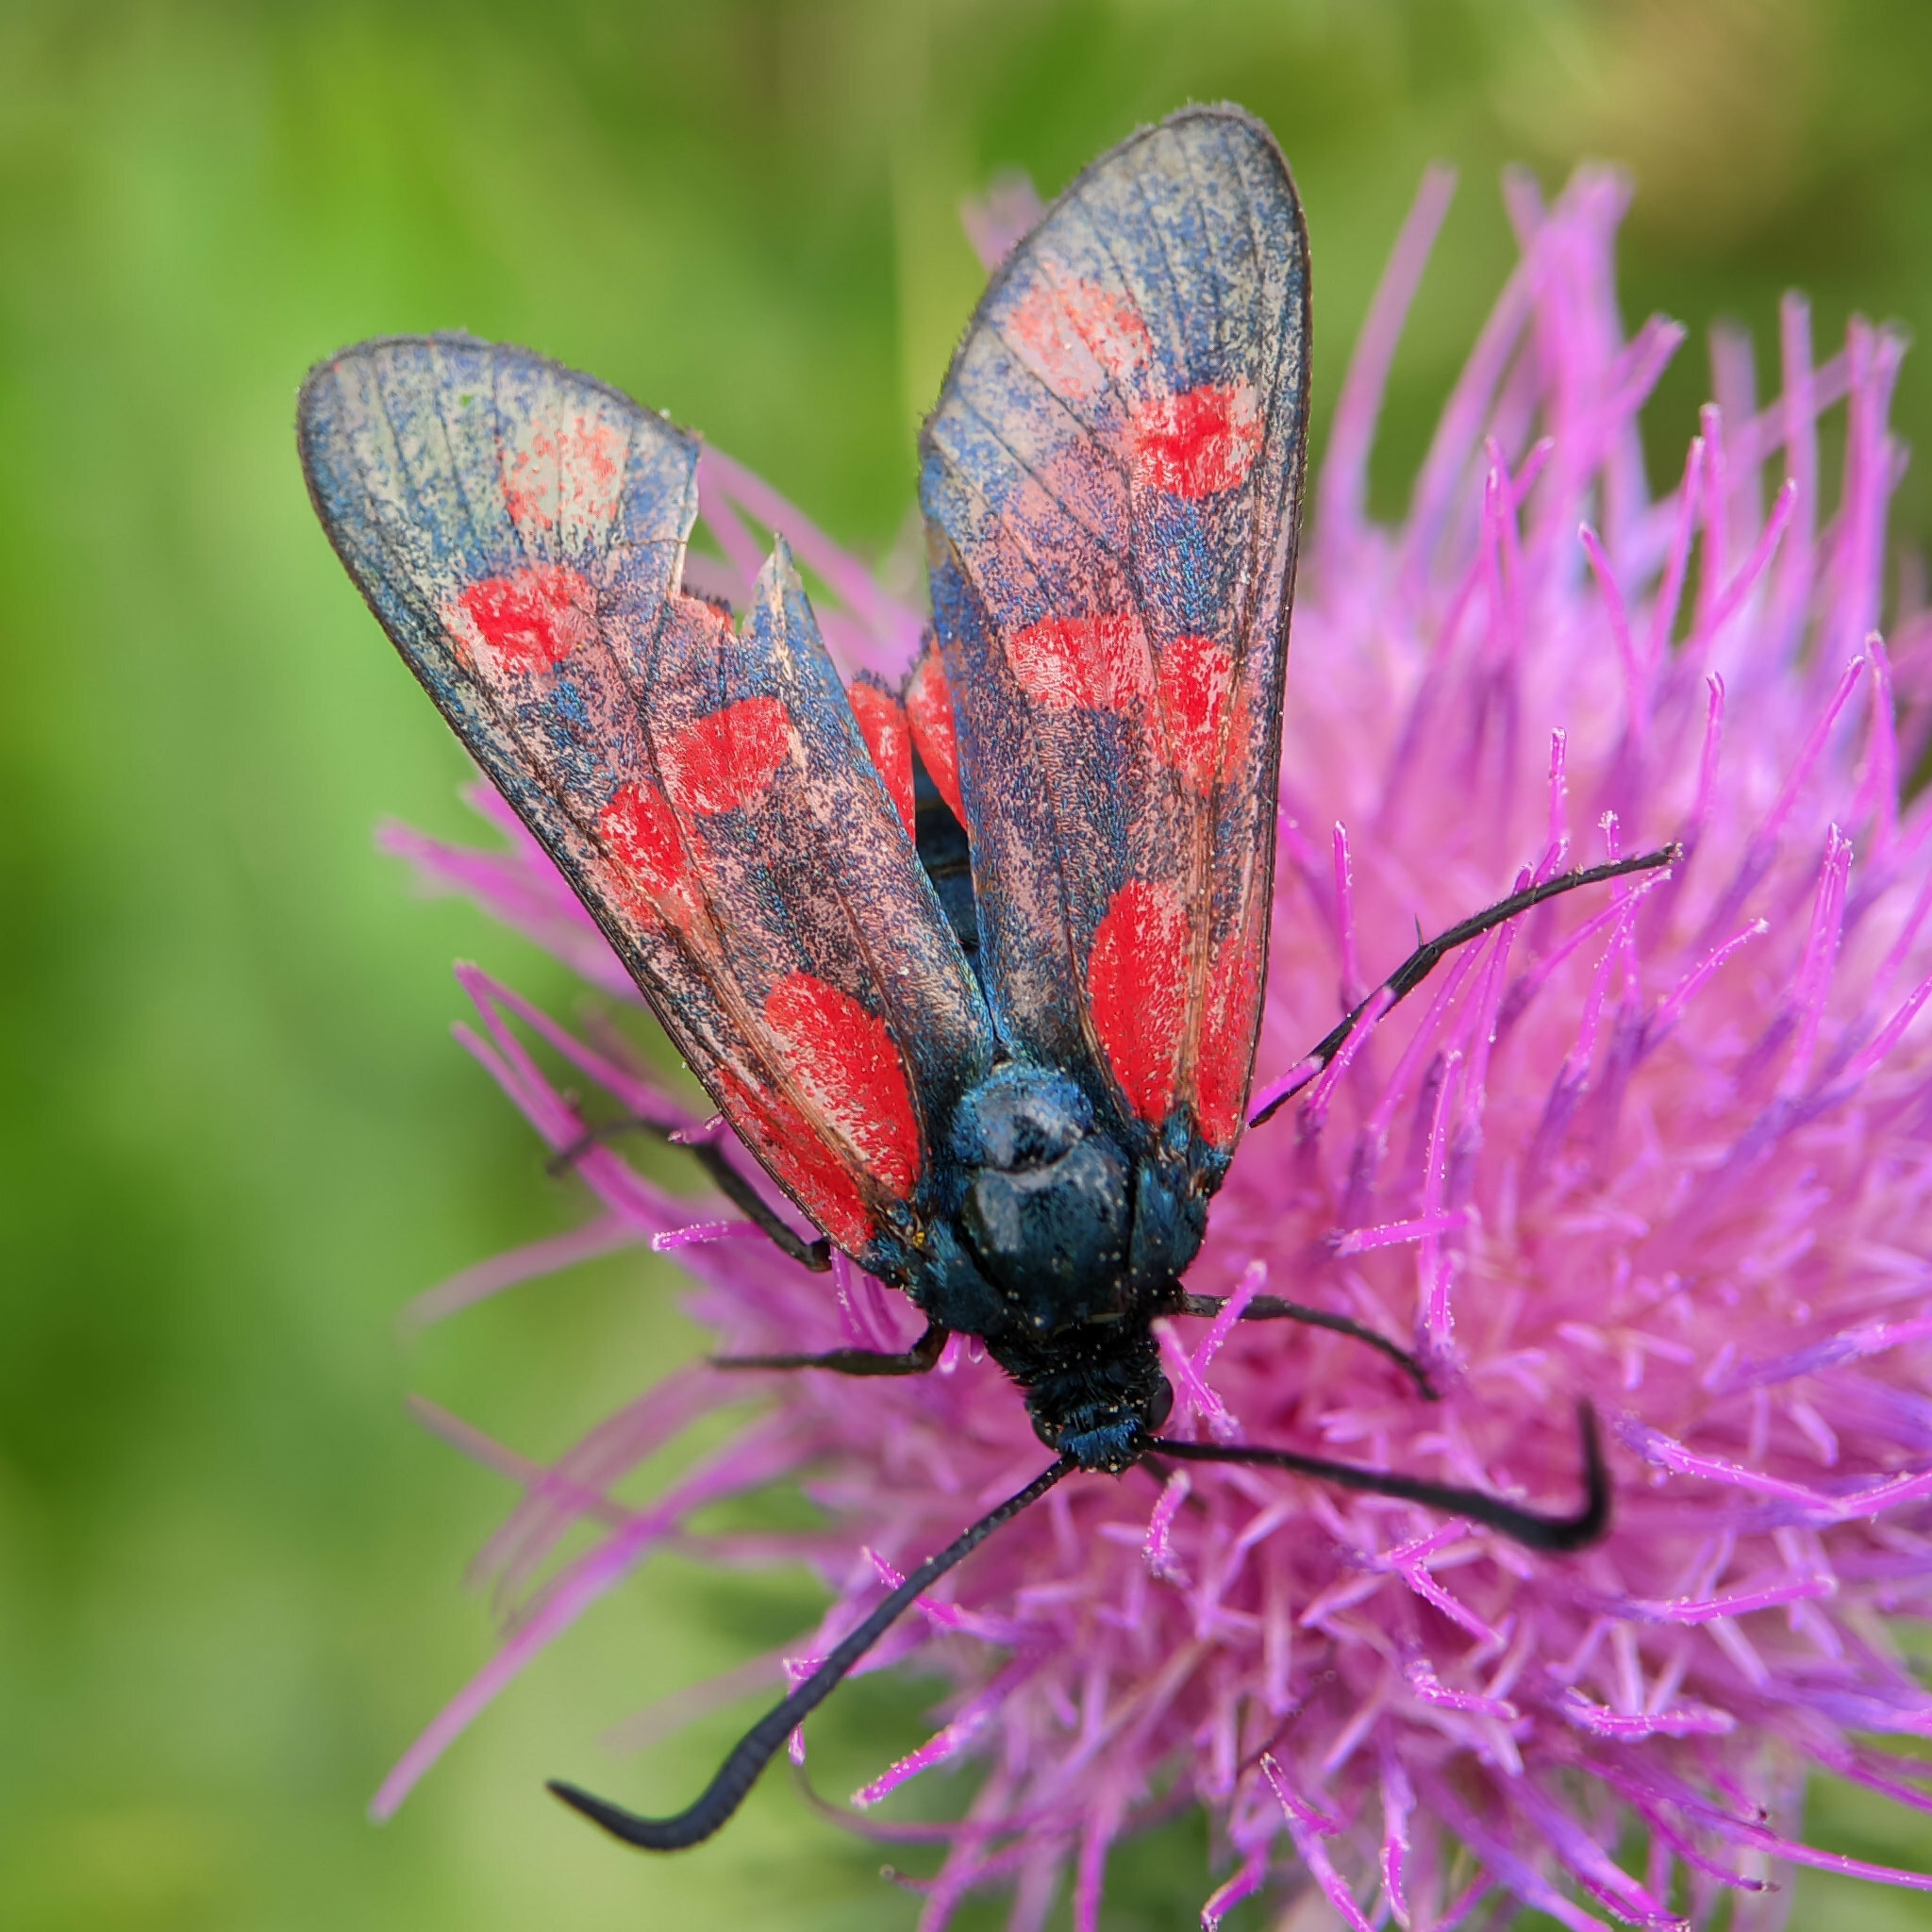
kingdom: Animalia
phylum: Arthropoda
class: Insecta
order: Lepidoptera
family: Zygaenidae
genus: Zygaena
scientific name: Zygaena filipendulae
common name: Six-spot burnet
